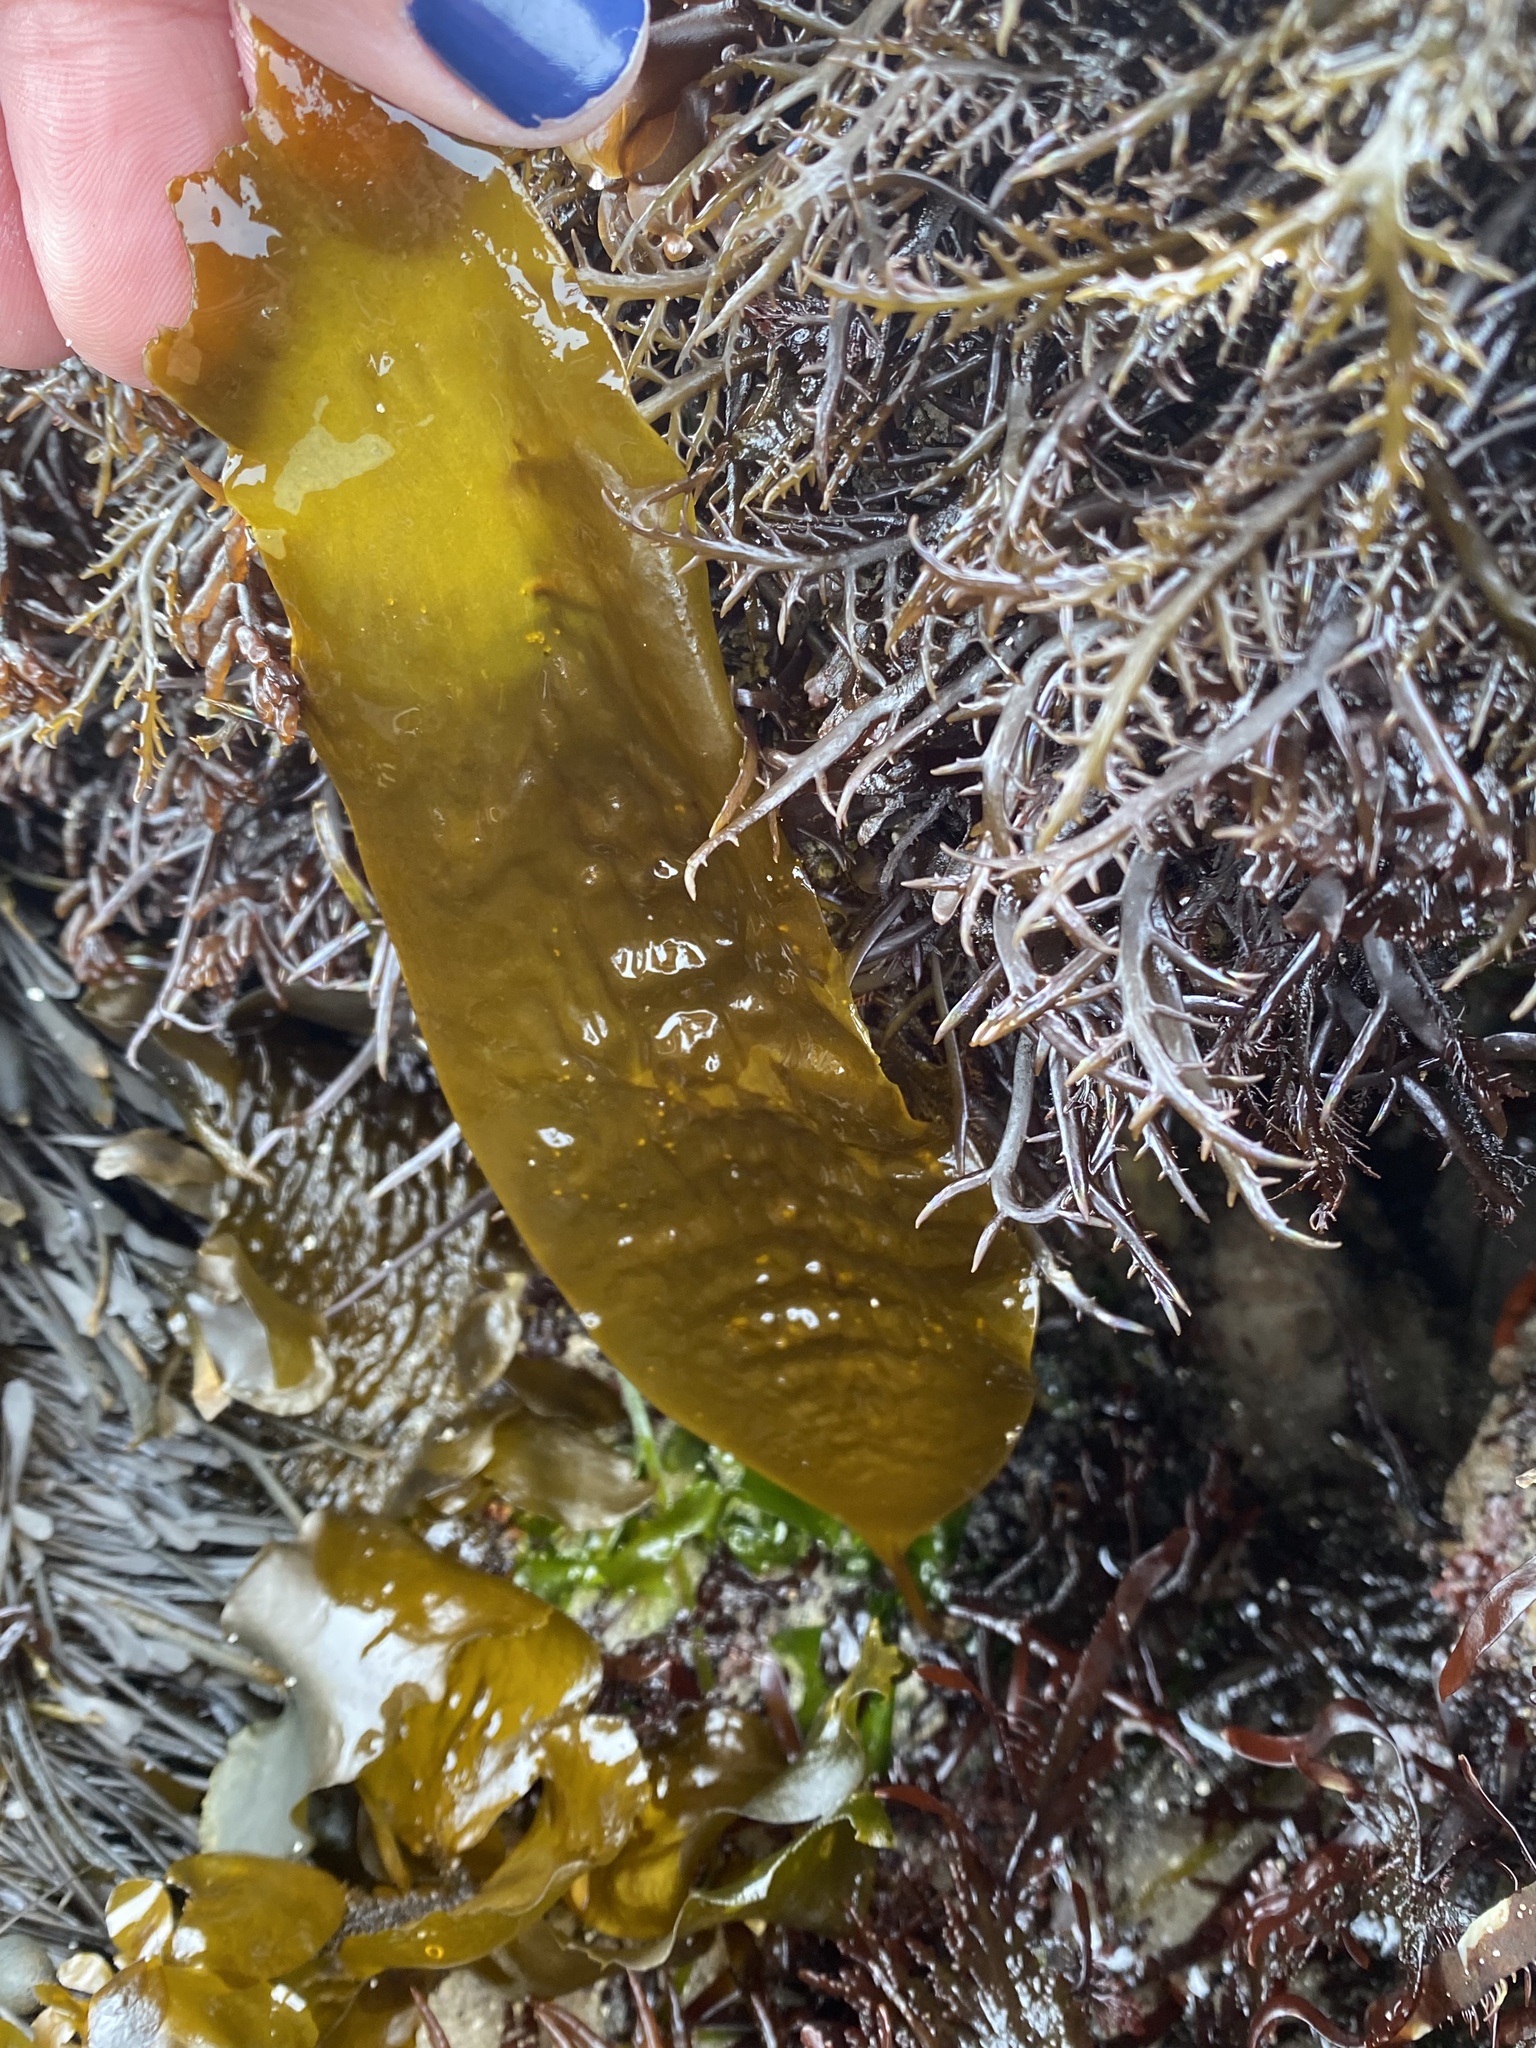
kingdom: Chromista
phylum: Ochrophyta
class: Phaeophyceae
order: Laminariales
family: Laminariaceae
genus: Macrocystis
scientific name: Macrocystis pyrifera
